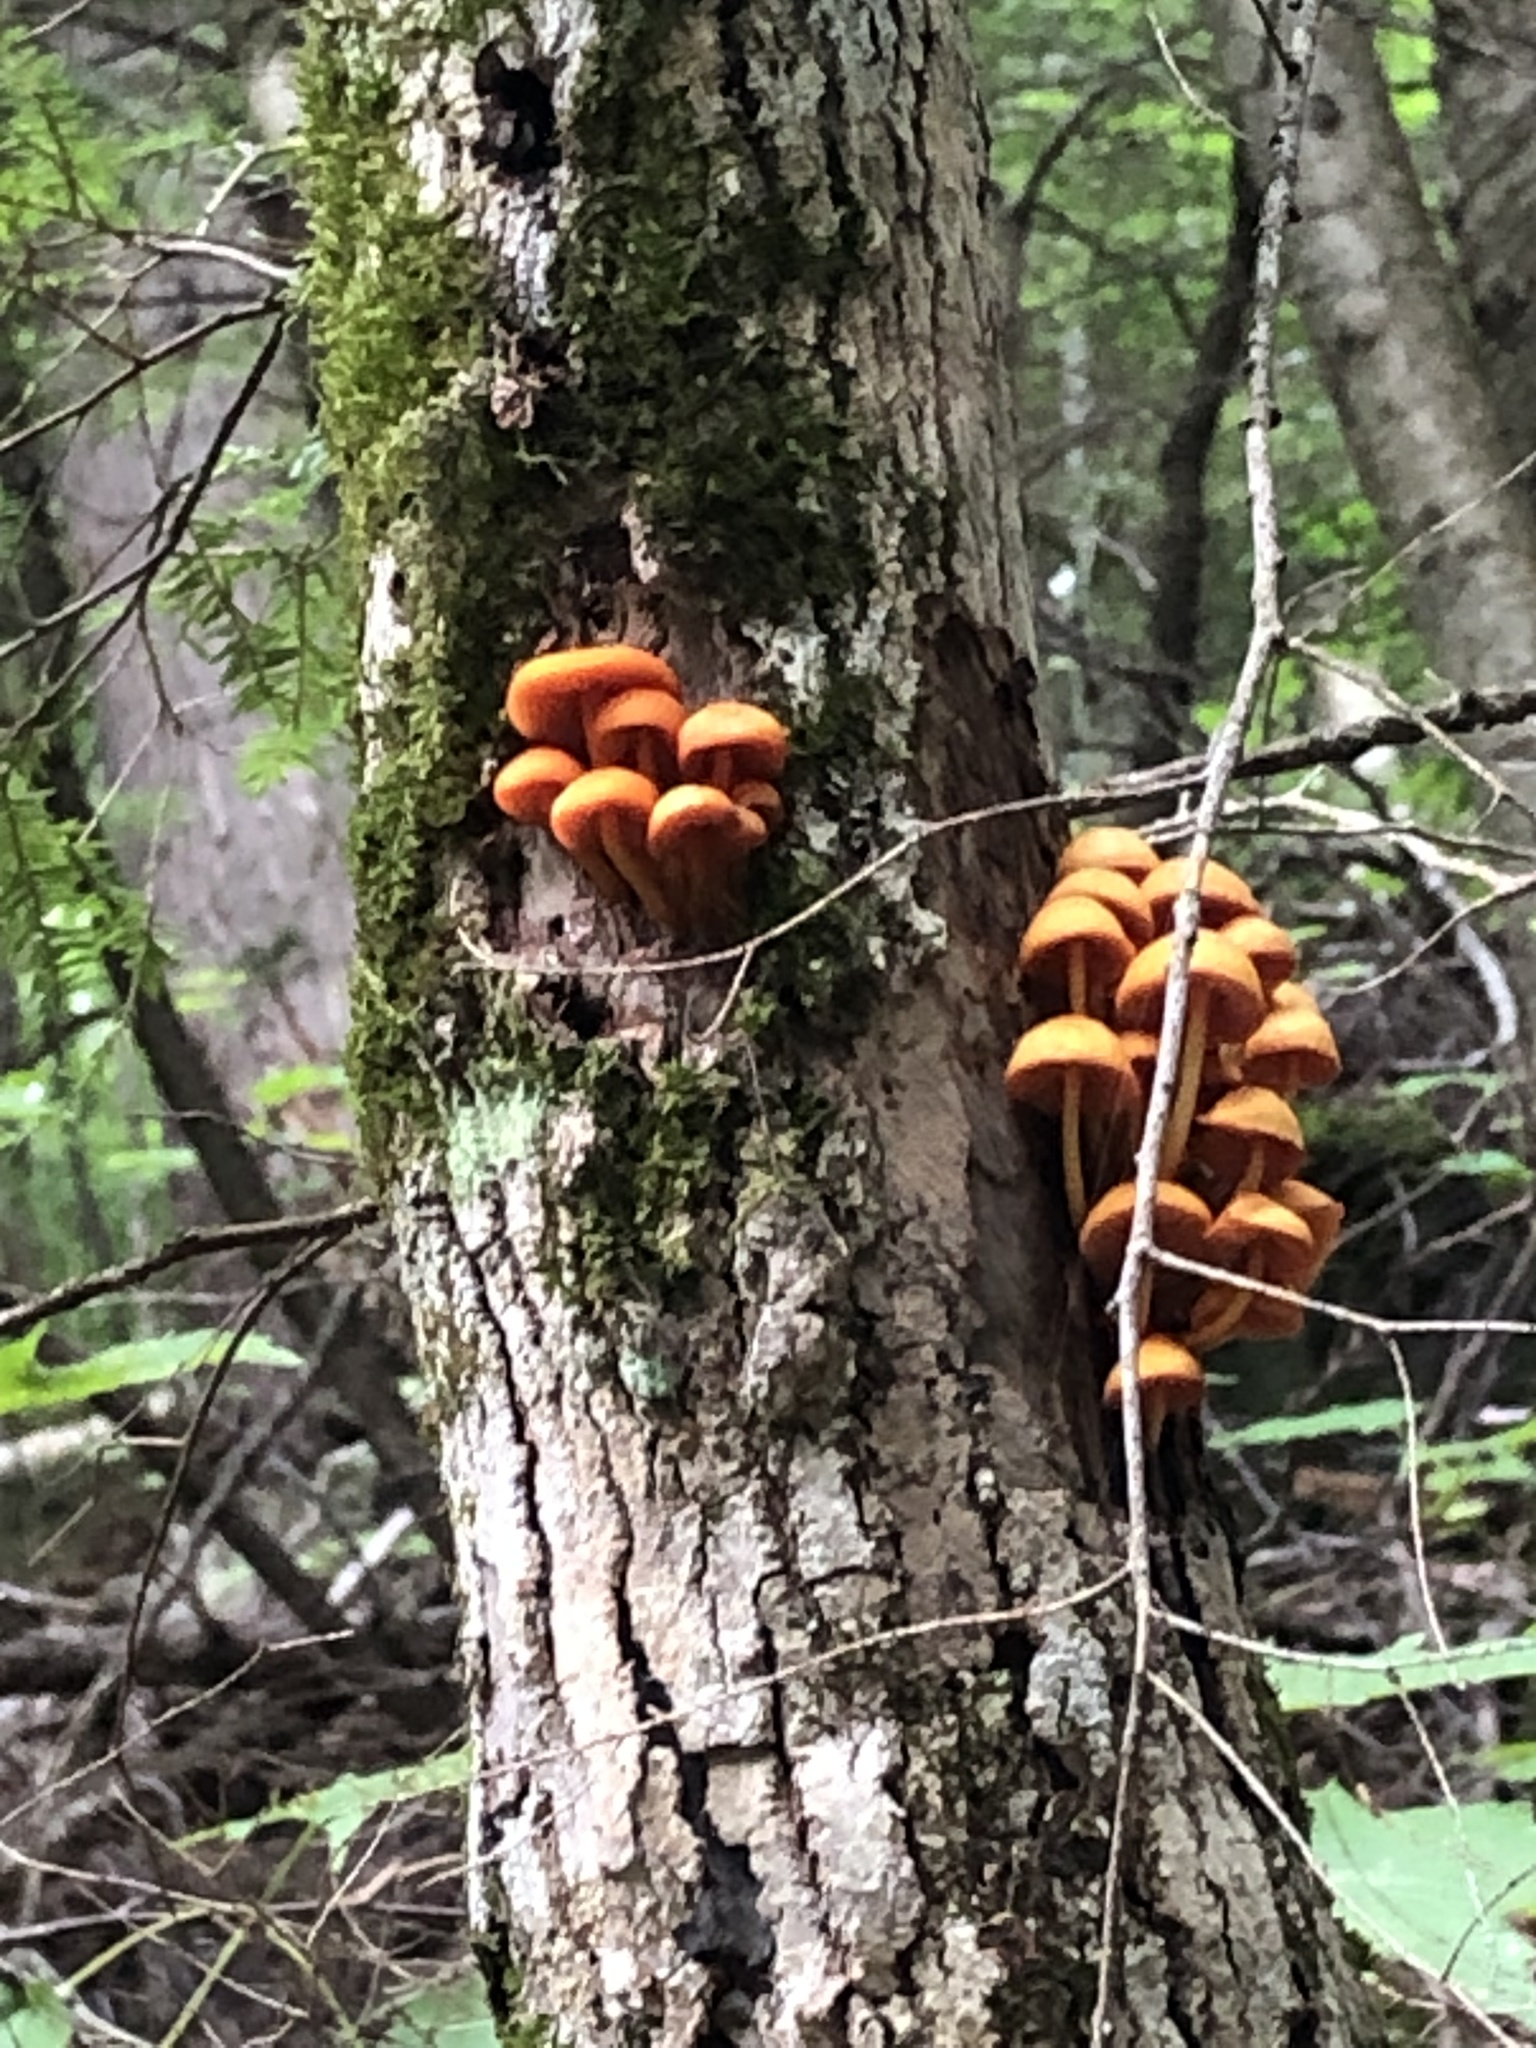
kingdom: Fungi
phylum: Basidiomycota
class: Agaricomycetes
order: Agaricales
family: Mycenaceae
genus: Mycena
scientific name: Mycena leaiana
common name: Orange mycena
